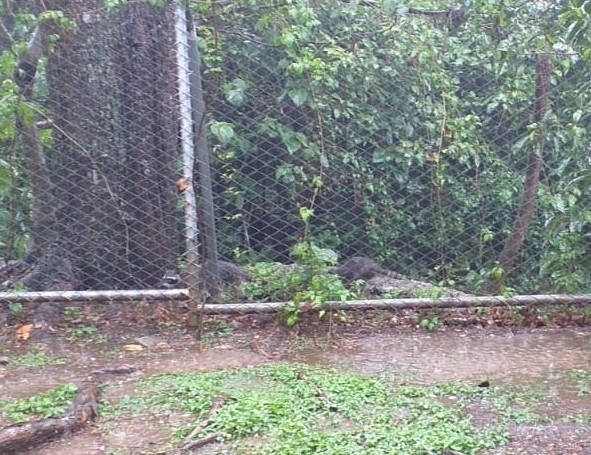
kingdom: Animalia
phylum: Chordata
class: Mammalia
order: Carnivora
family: Procyonidae
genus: Procyon
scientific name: Procyon lotor
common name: Raccoon
